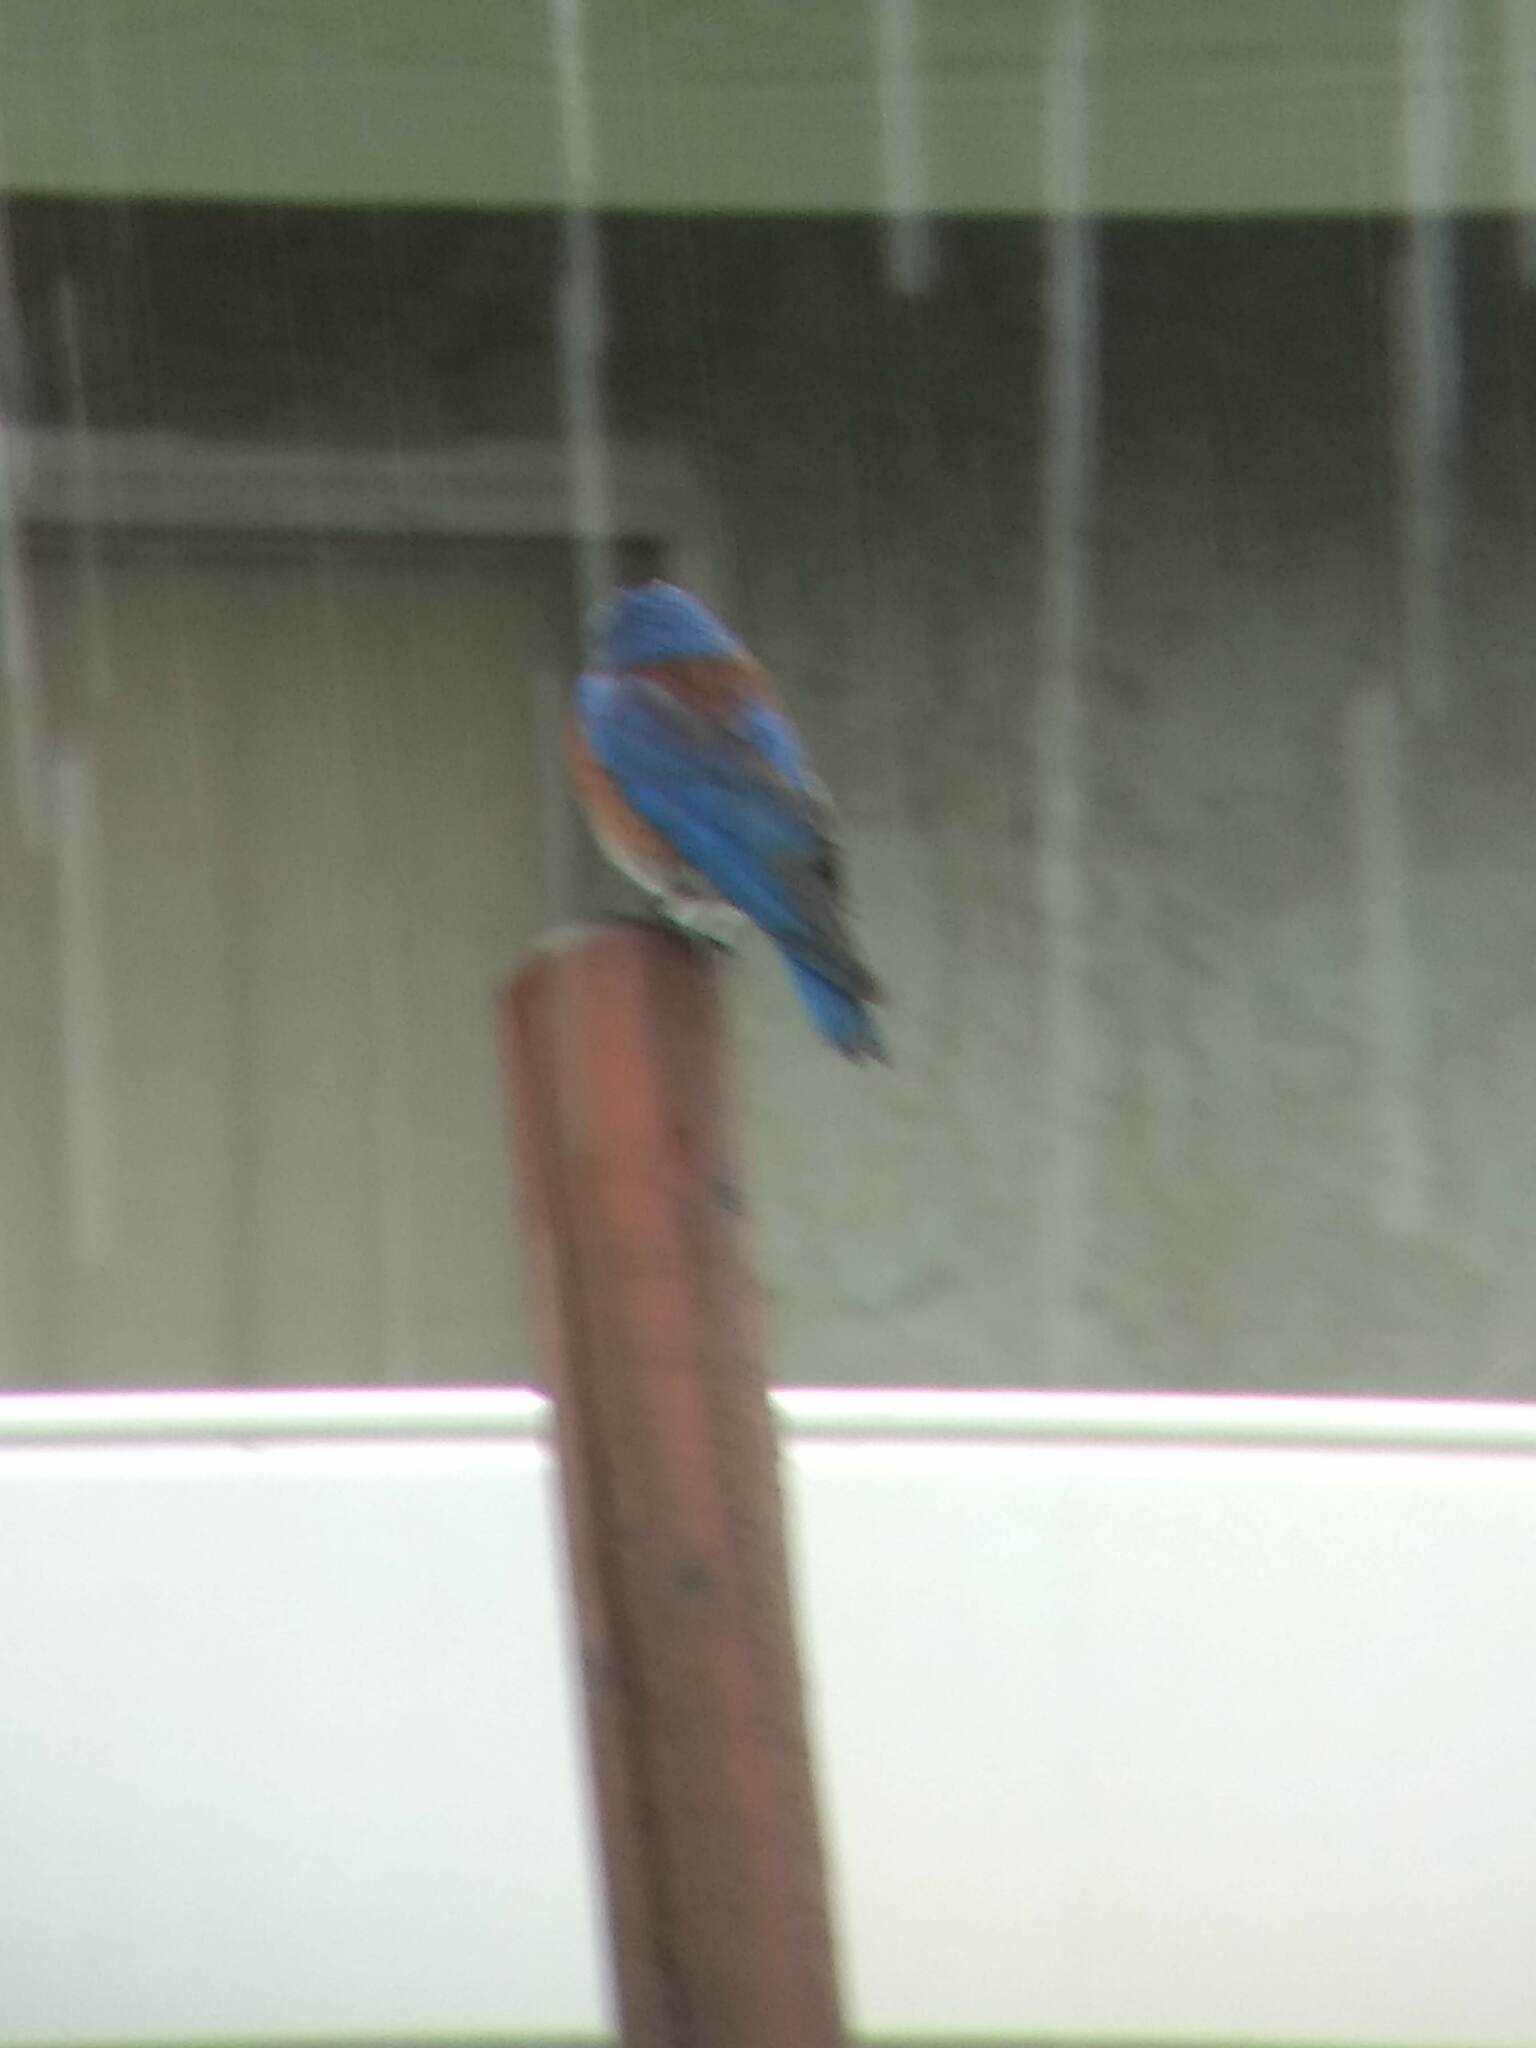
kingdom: Animalia
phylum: Chordata
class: Aves
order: Passeriformes
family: Turdidae
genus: Sialia
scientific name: Sialia mexicana
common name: Western bluebird
